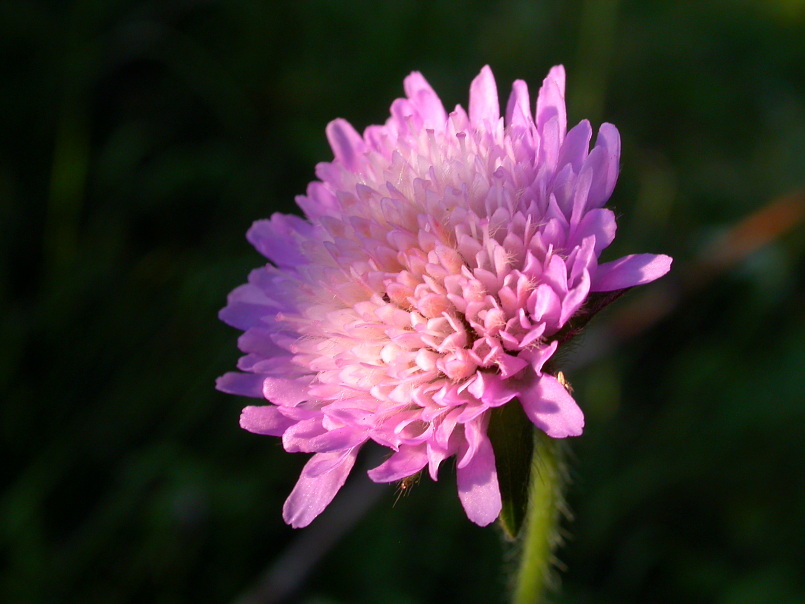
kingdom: Plantae
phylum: Tracheophyta
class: Magnoliopsida
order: Dipsacales
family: Caprifoliaceae
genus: Knautia
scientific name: Knautia arvensis
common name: Field scabiosa
